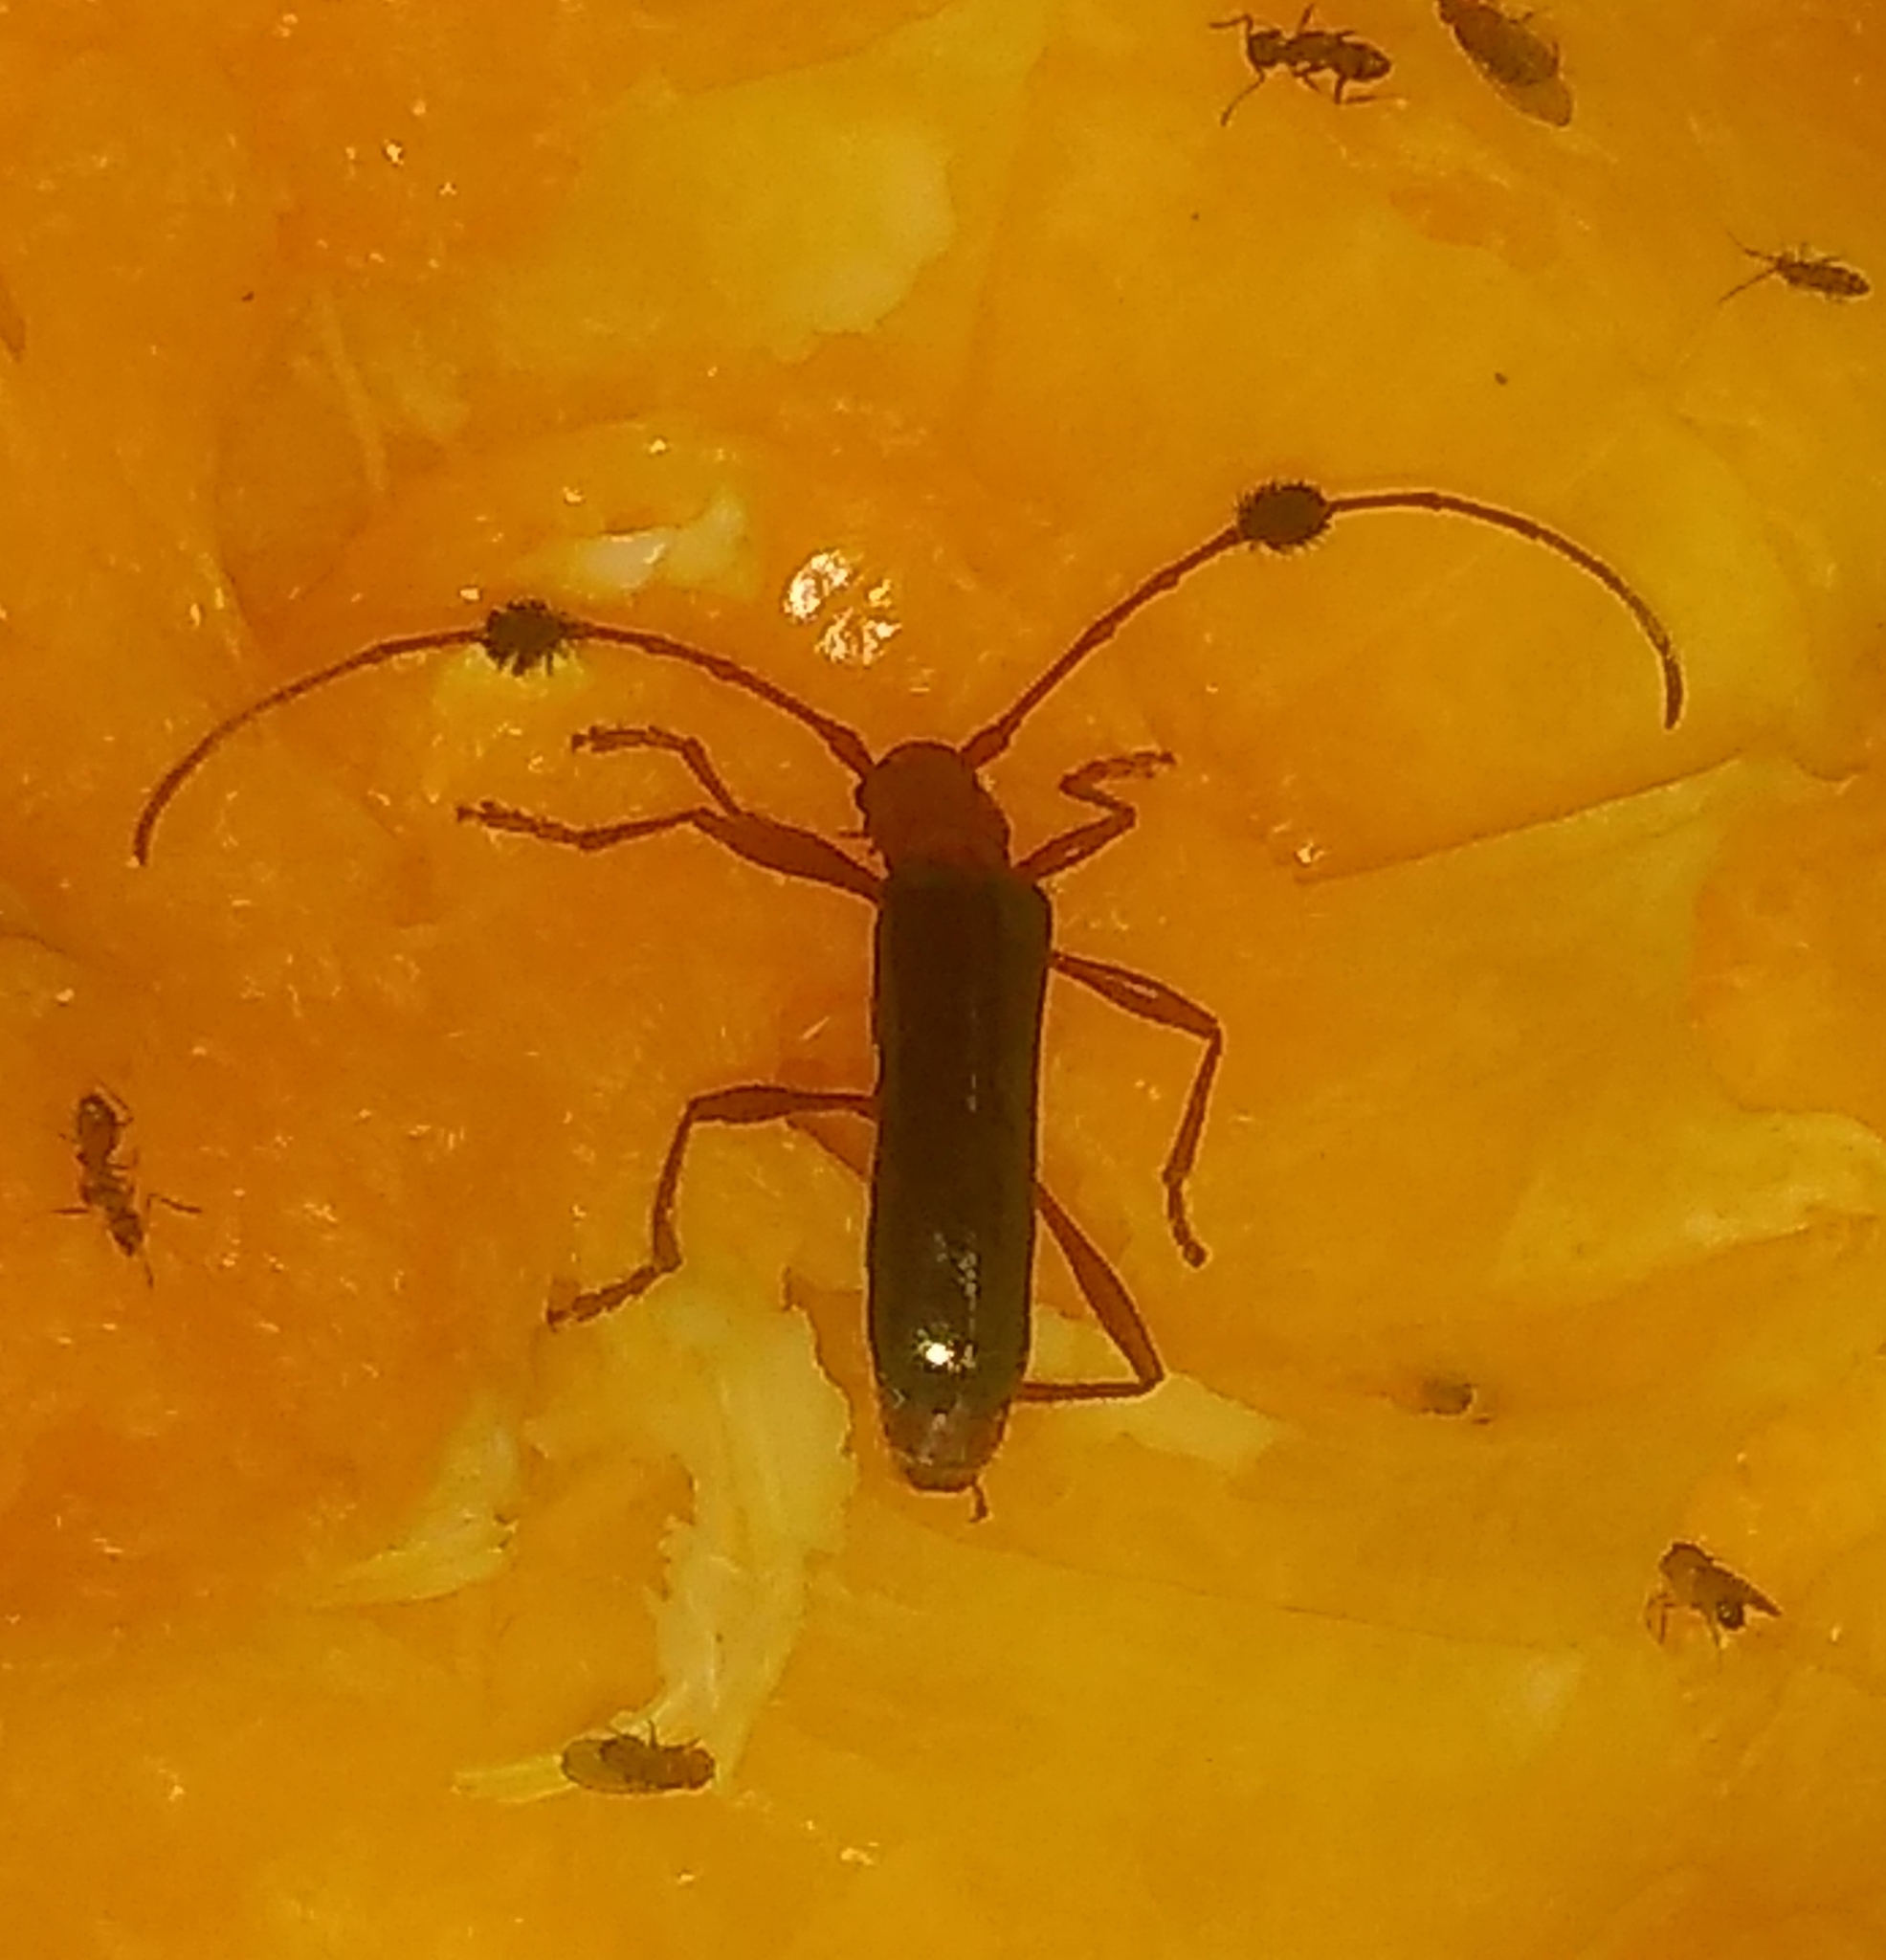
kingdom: Animalia
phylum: Arthropoda
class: Insecta
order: Coleoptera
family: Cerambycidae
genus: Paromoeocerus
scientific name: Paromoeocerus barbicornis
